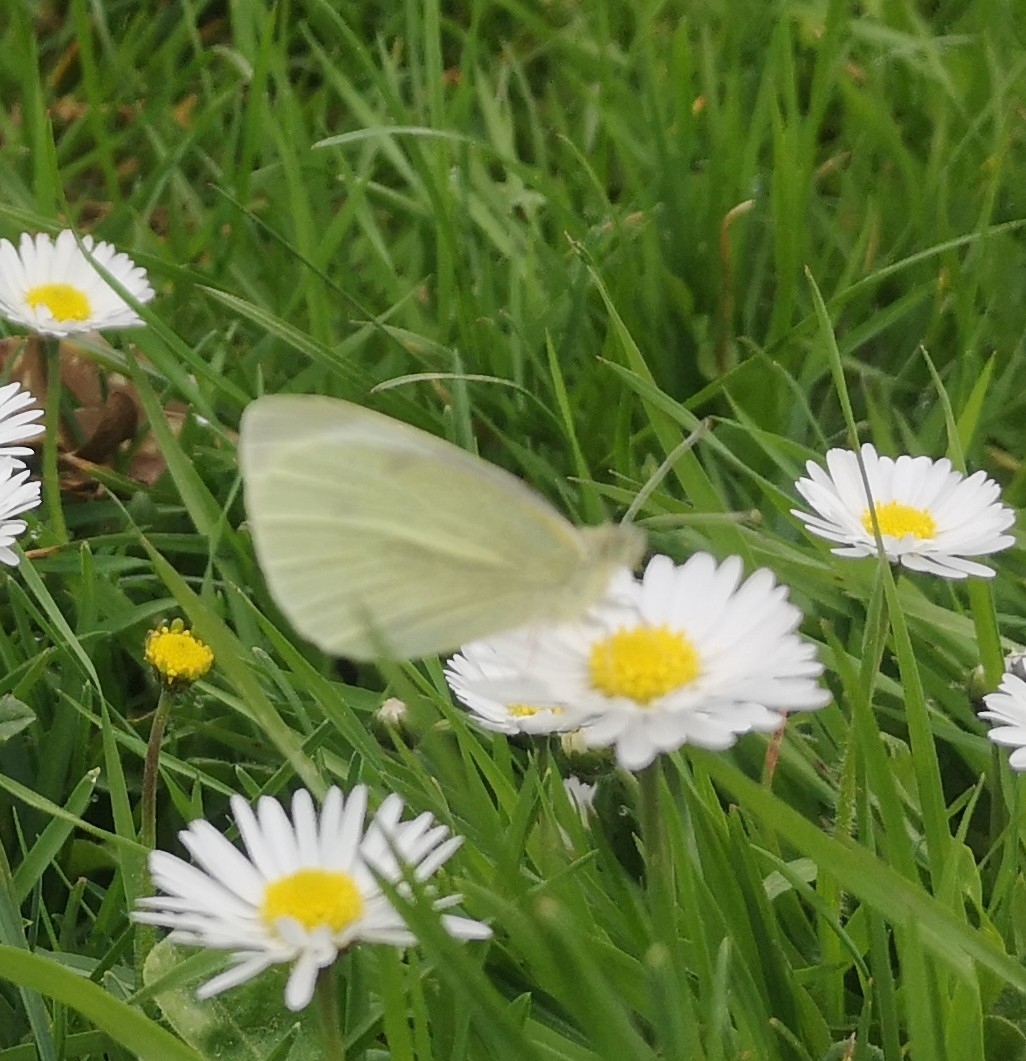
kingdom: Animalia
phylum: Arthropoda
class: Insecta
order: Lepidoptera
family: Pieridae
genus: Pieris
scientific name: Pieris rapae
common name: Small white
